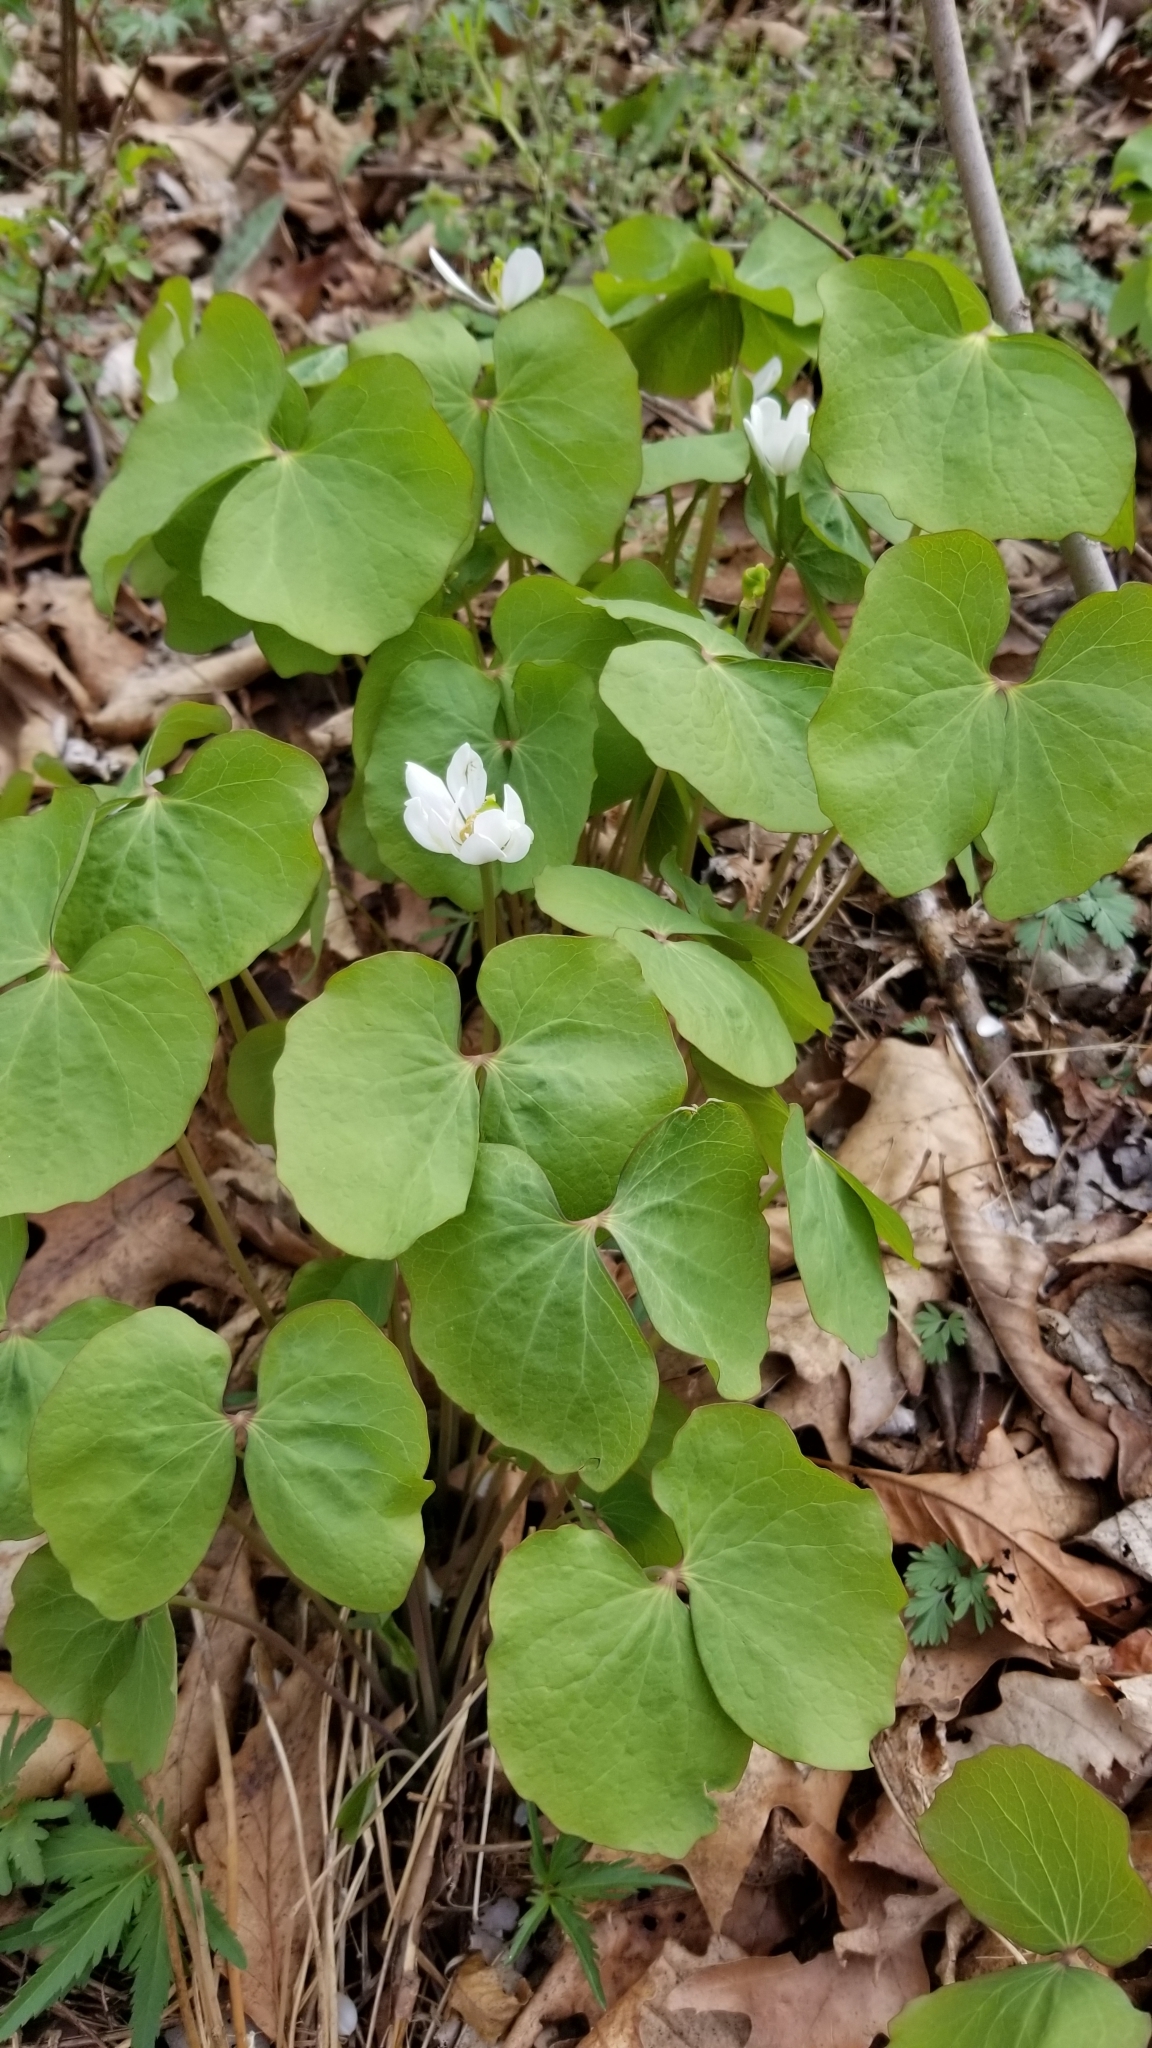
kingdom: Plantae
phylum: Tracheophyta
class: Magnoliopsida
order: Ranunculales
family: Berberidaceae
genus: Jeffersonia
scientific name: Jeffersonia diphylla
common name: Rheumatism-root
